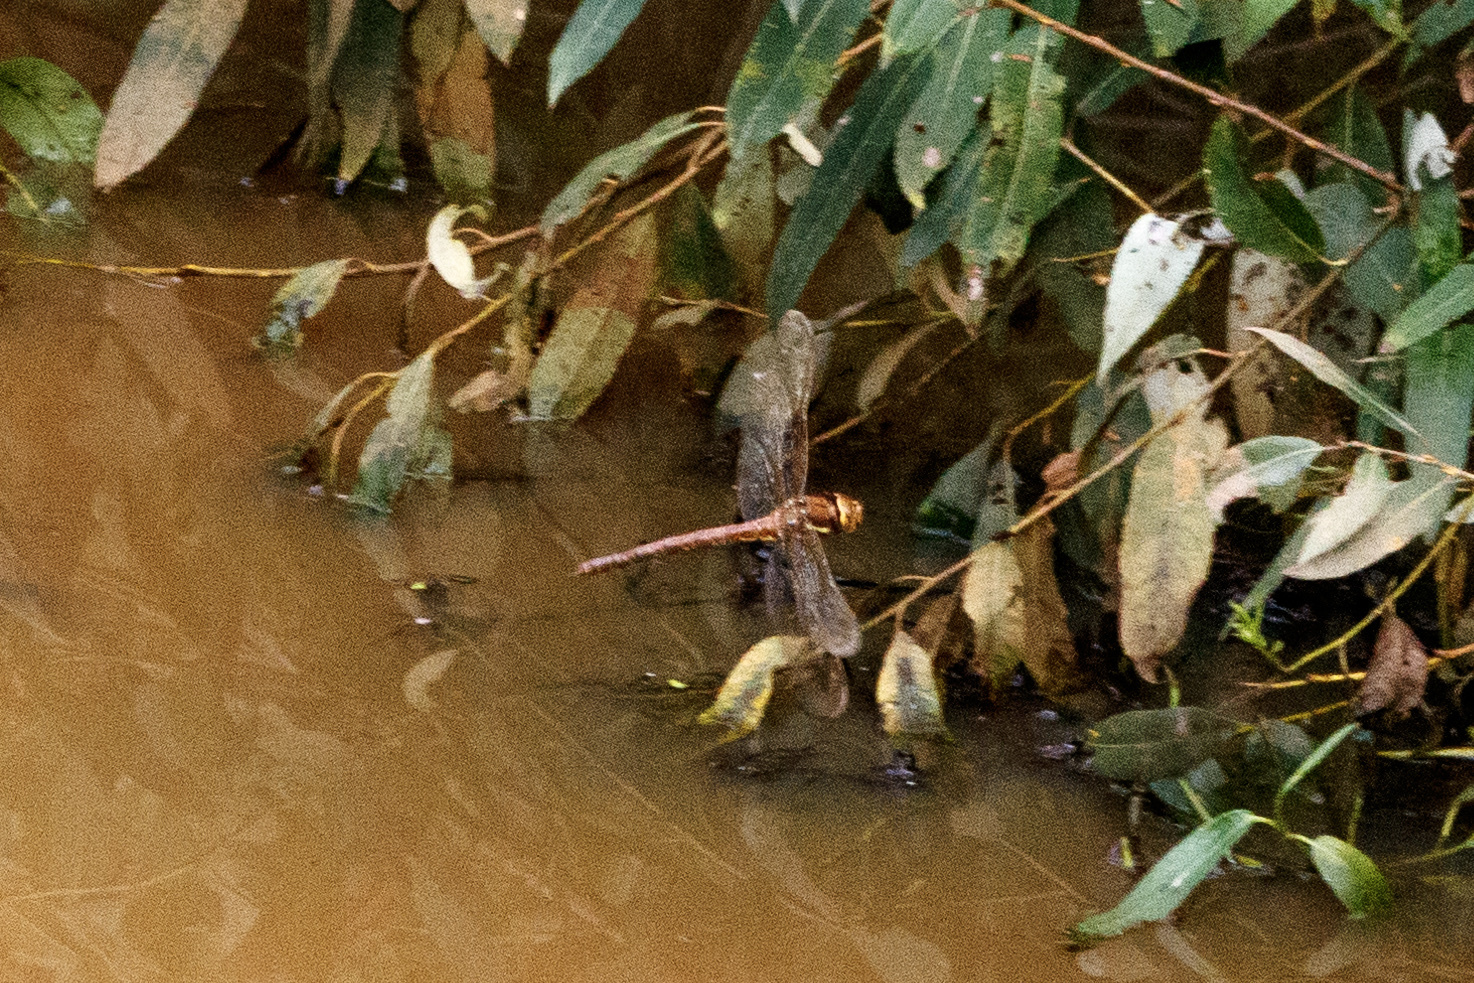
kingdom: Animalia
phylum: Arthropoda
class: Insecta
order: Odonata
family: Aeshnidae
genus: Aeshna
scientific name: Aeshna grandis
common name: Brown hawker
